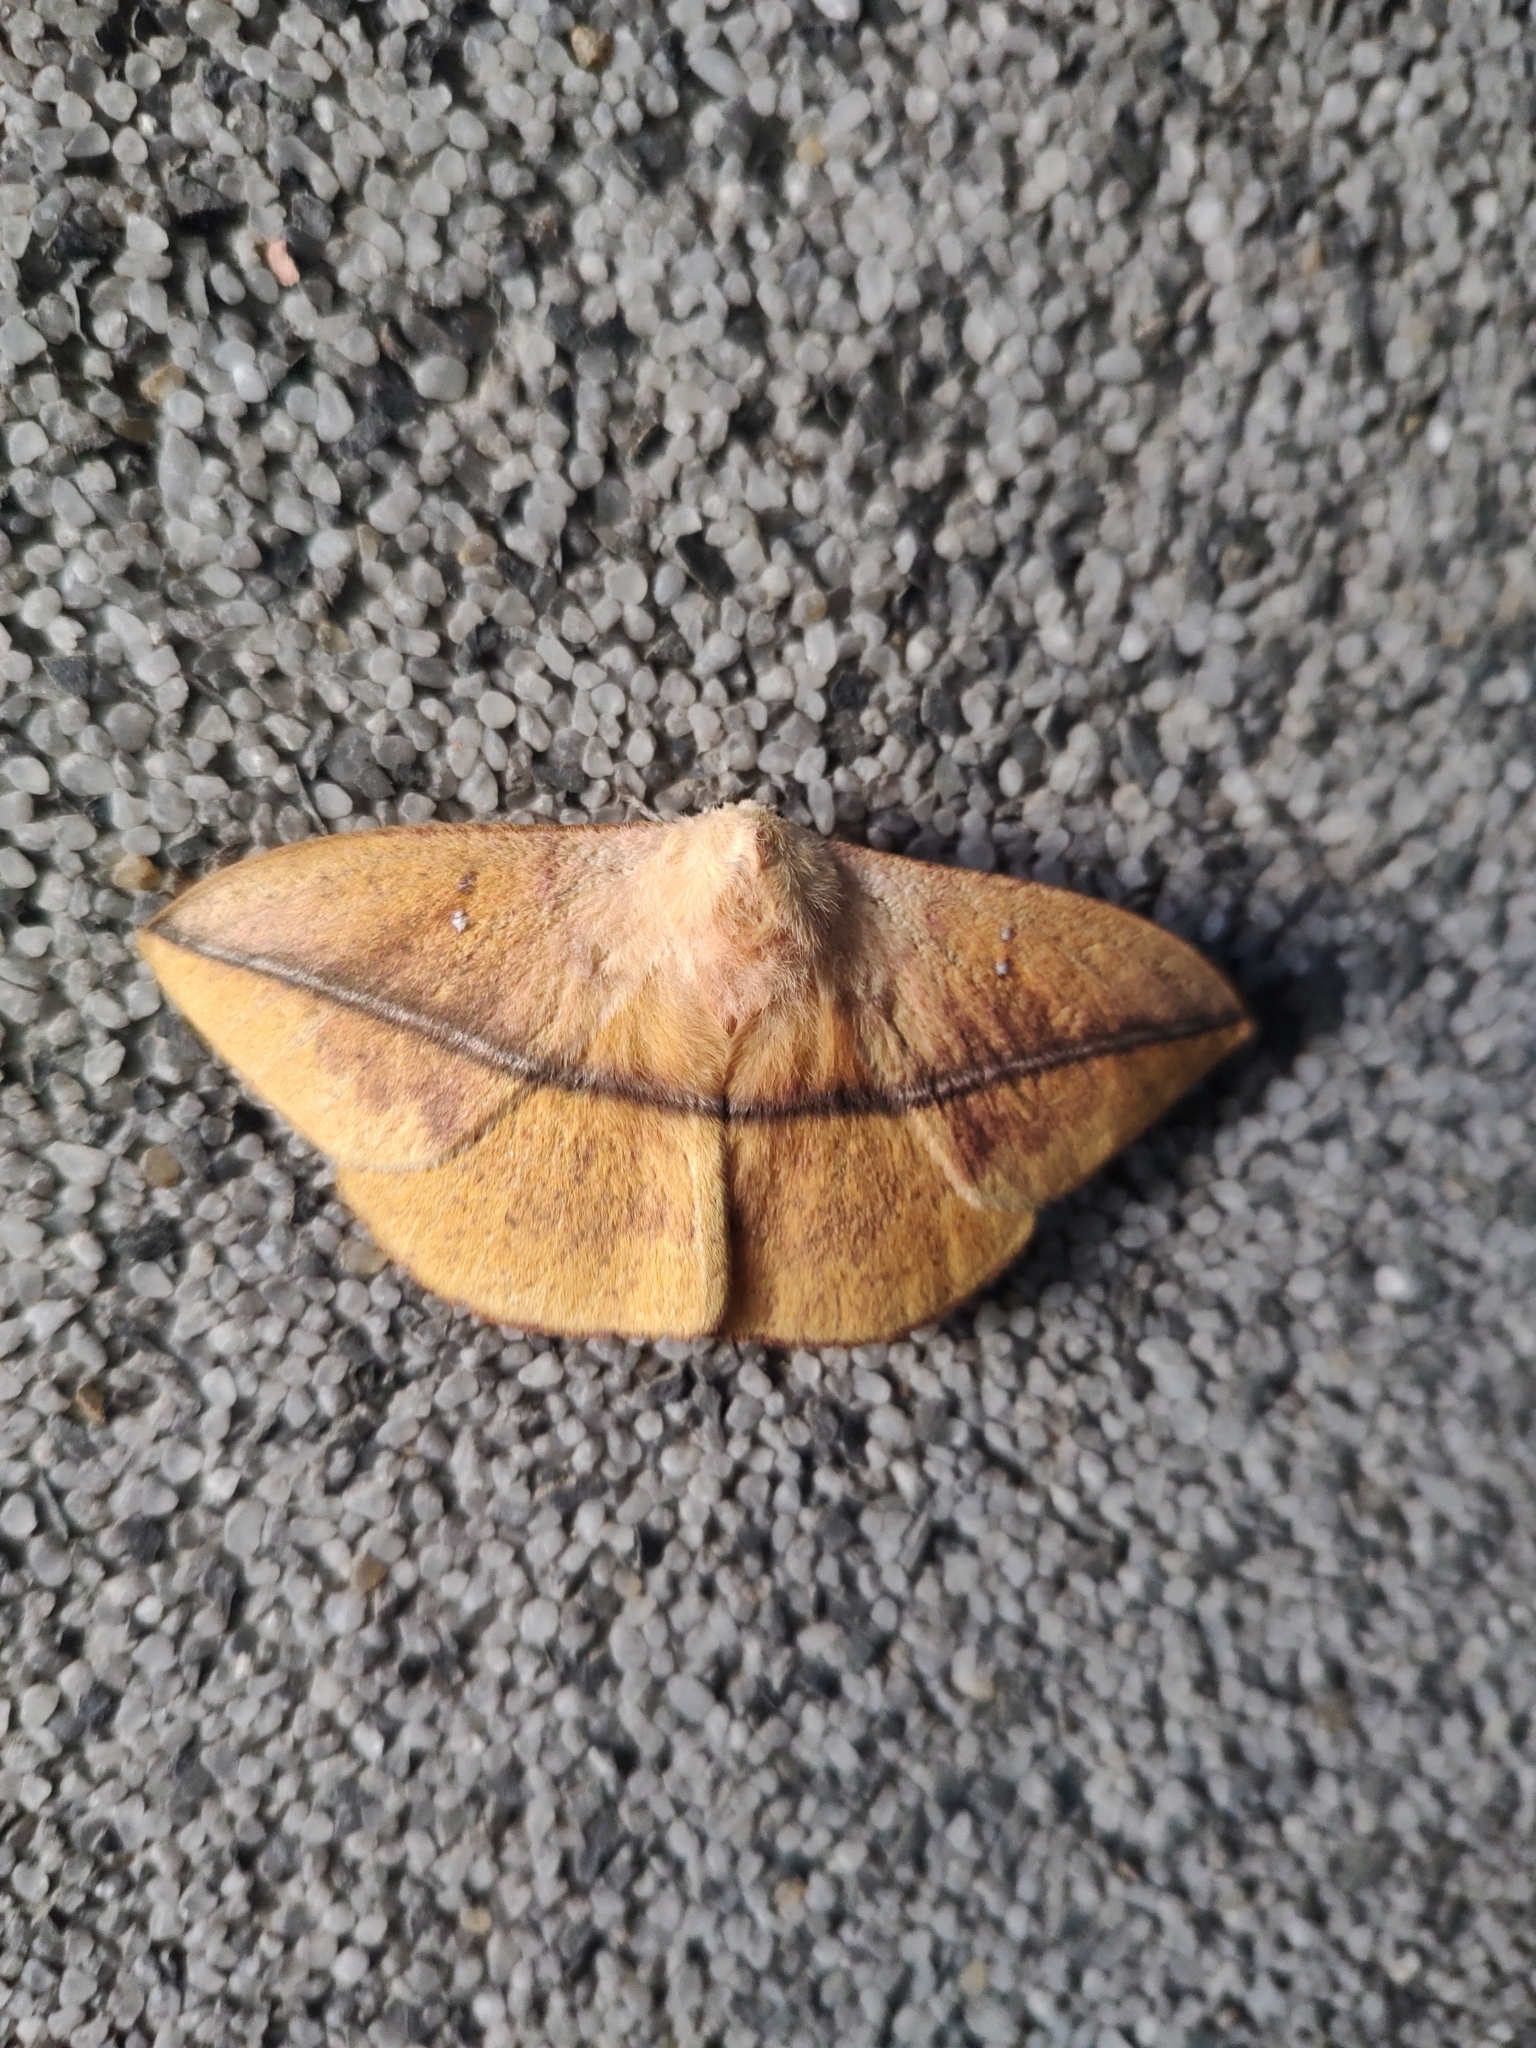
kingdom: Animalia
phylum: Arthropoda
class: Insecta
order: Lepidoptera
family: Saturniidae
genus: Lonomia
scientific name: Lonomia obliqua
